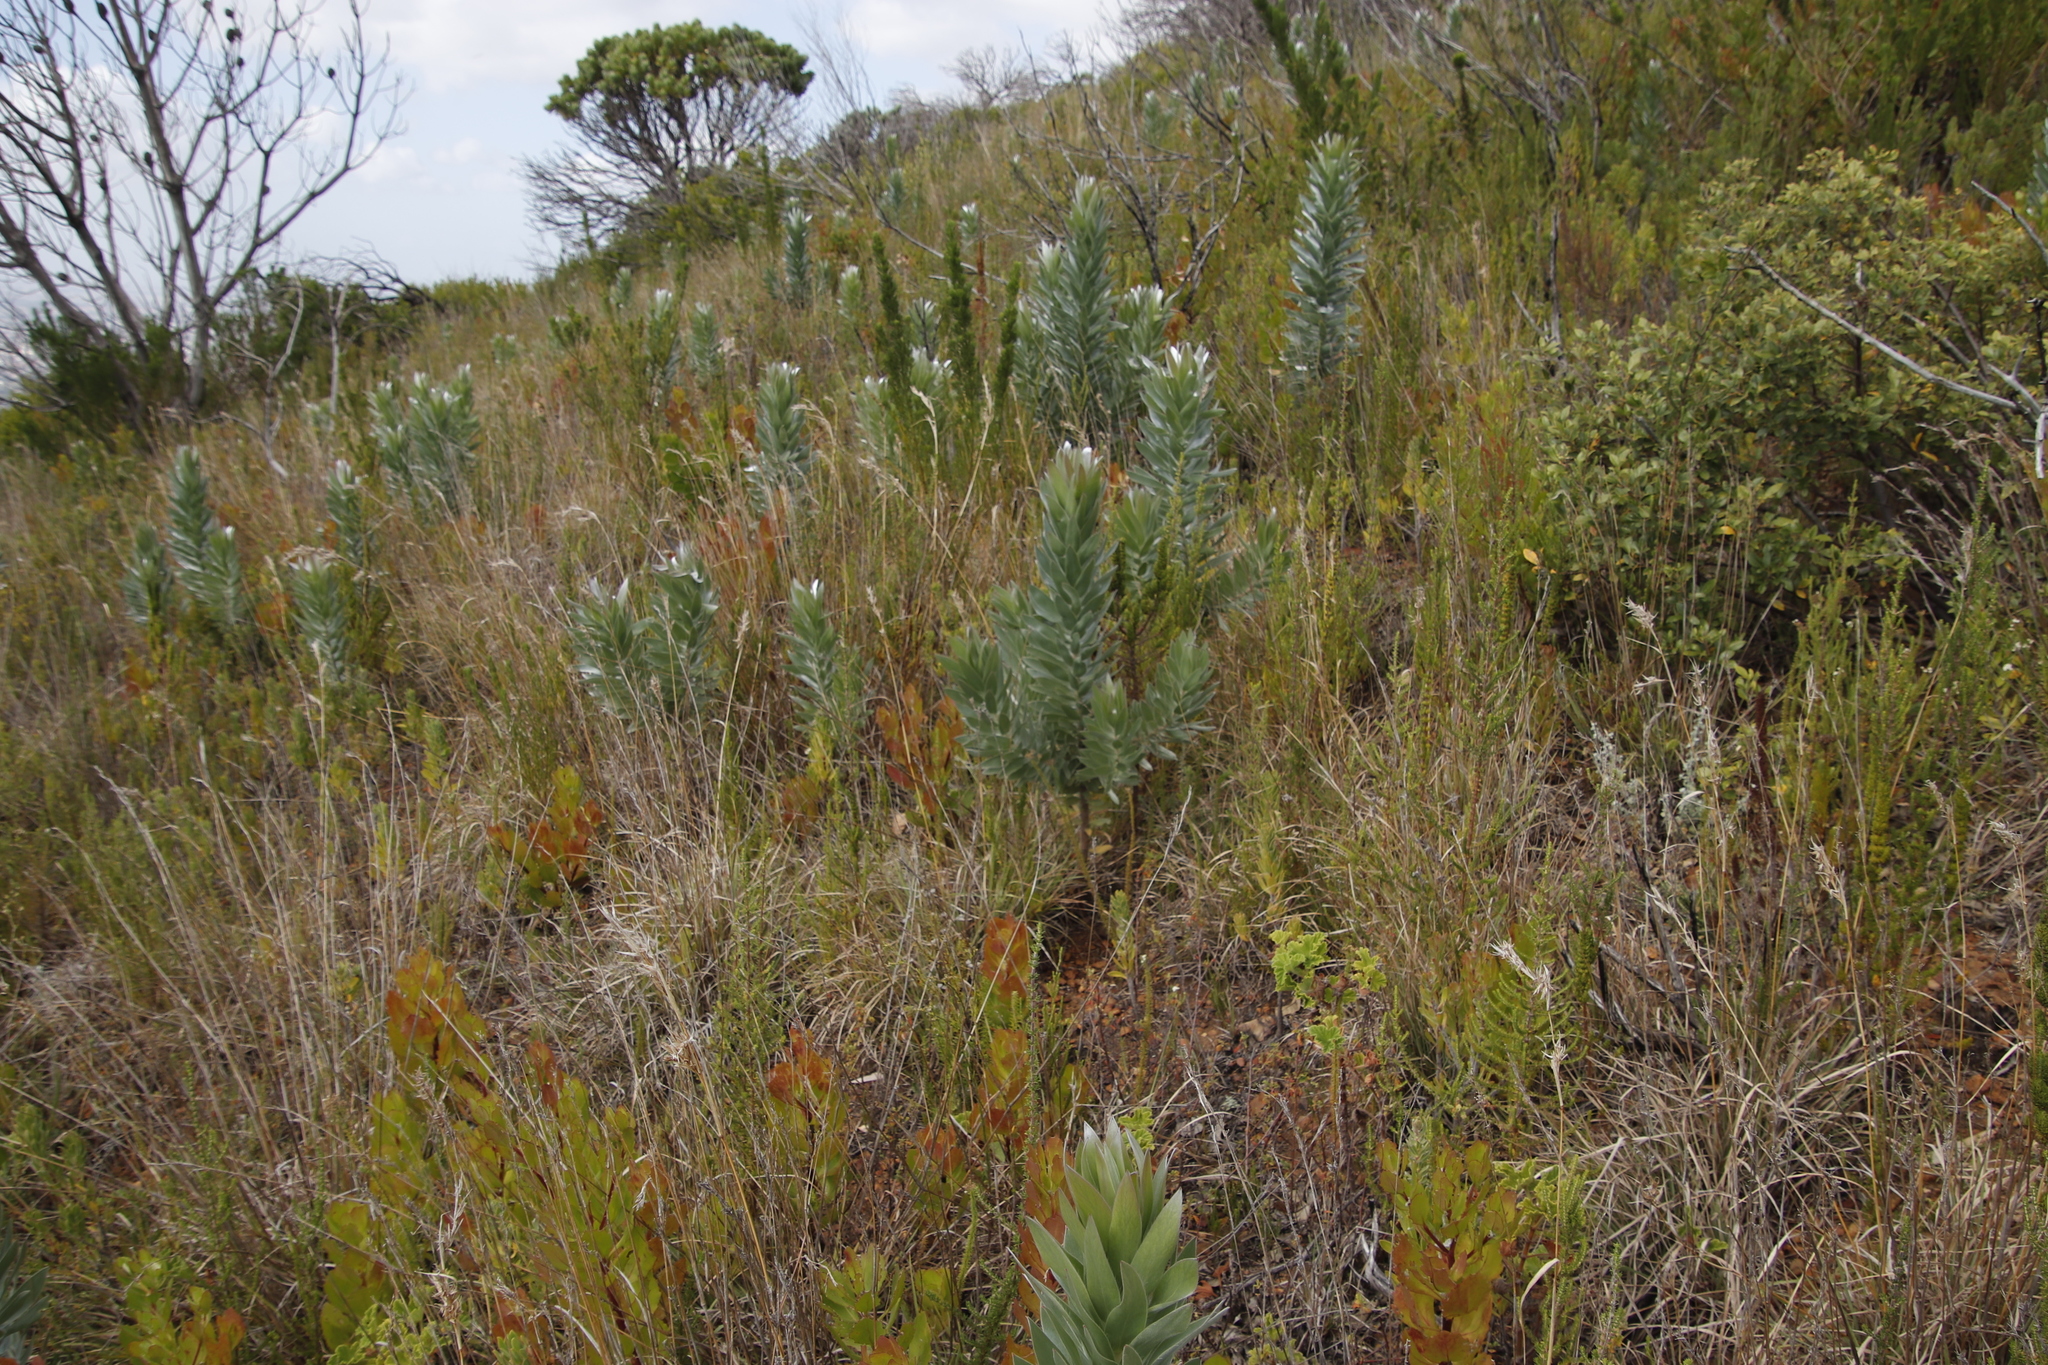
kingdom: Plantae
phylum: Tracheophyta
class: Magnoliopsida
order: Proteales
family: Proteaceae
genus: Leucadendron
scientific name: Leucadendron argenteum
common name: Cape silver tree
